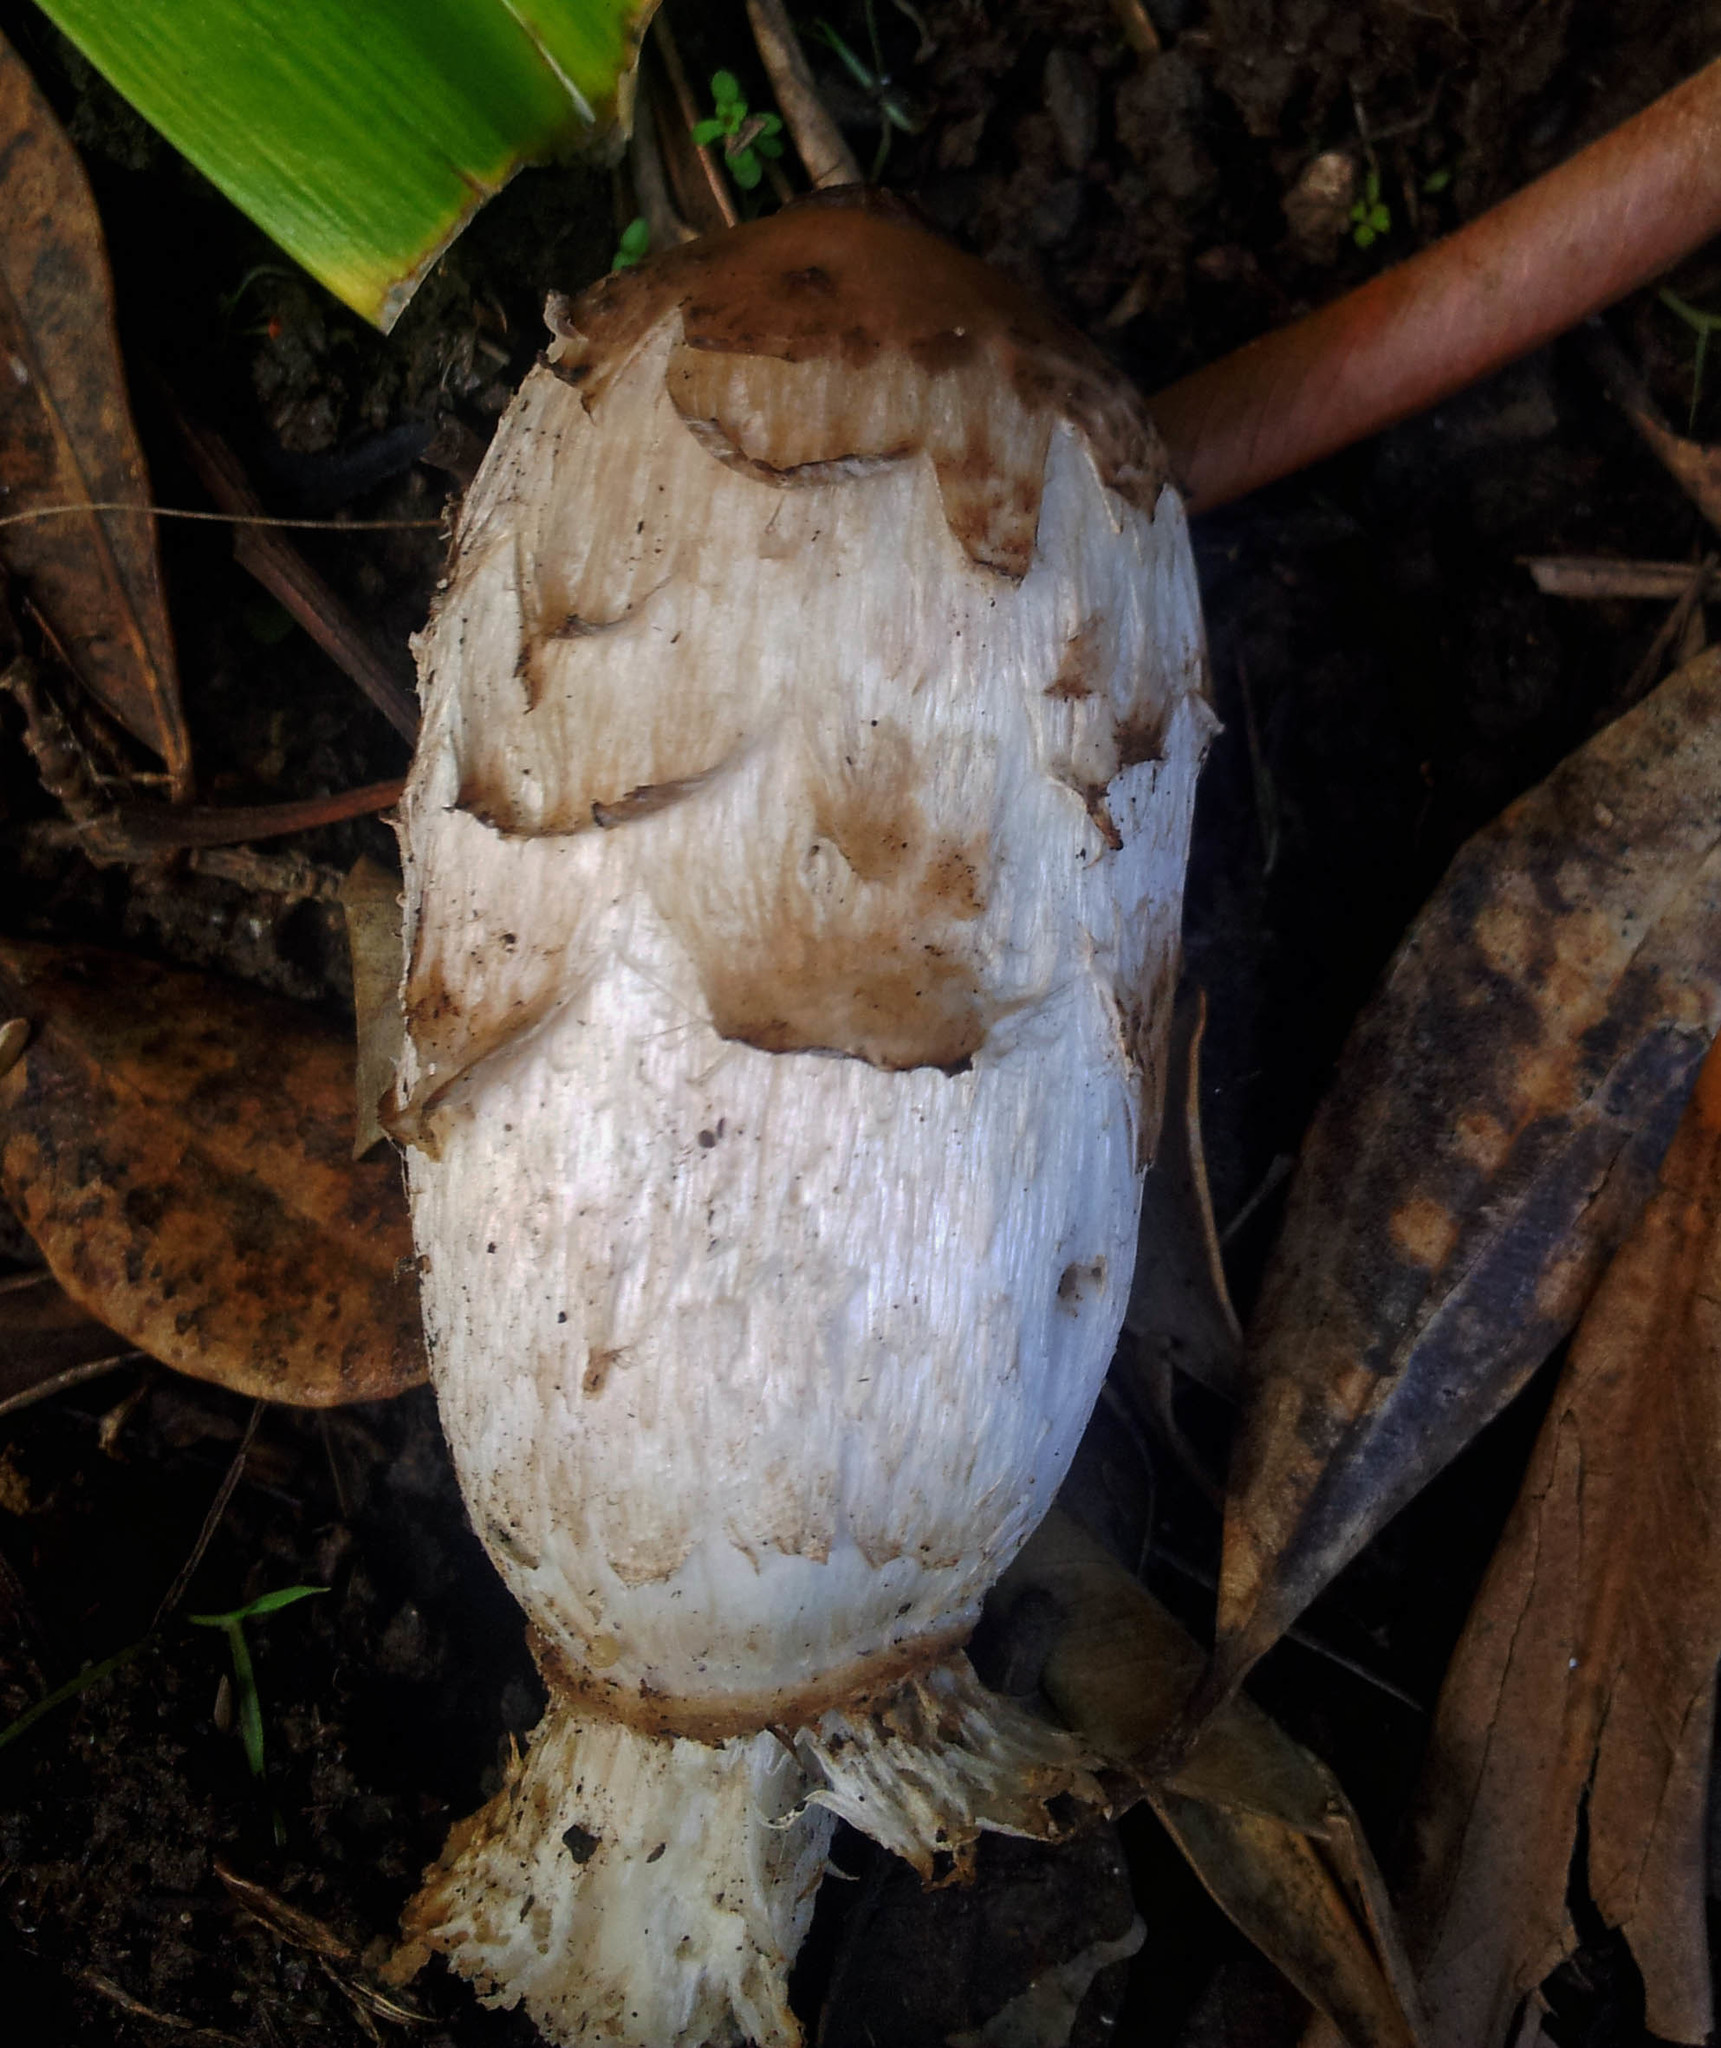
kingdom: Fungi
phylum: Basidiomycota
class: Agaricomycetes
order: Agaricales
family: Agaricaceae
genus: Coprinus
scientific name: Coprinus comatus
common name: Lawyer's wig
